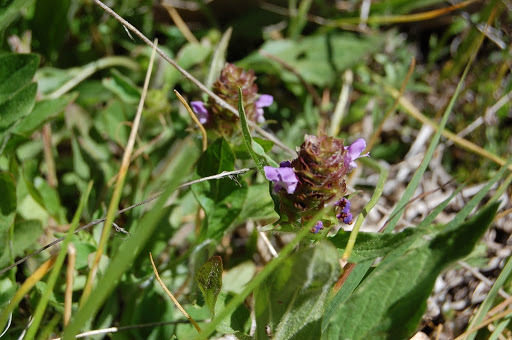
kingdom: Plantae
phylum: Tracheophyta
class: Magnoliopsida
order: Lamiales
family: Lamiaceae
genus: Prunella
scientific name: Prunella vulgaris
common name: Heal-all
